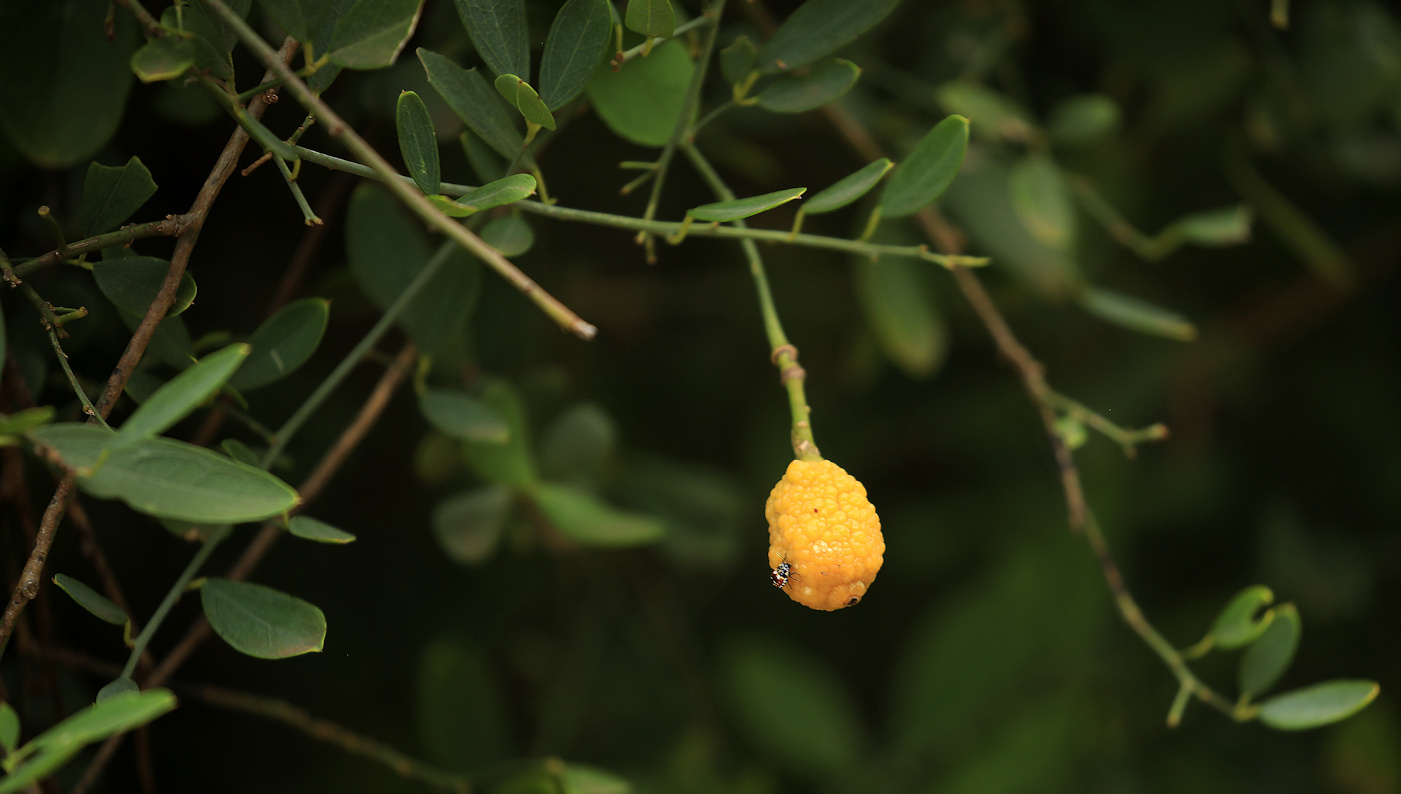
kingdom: Plantae
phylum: Tracheophyta
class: Magnoliopsida
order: Brassicales
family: Capparaceae
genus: Maerua
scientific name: Maerua juncea
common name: Rough-skinned bush cherry
